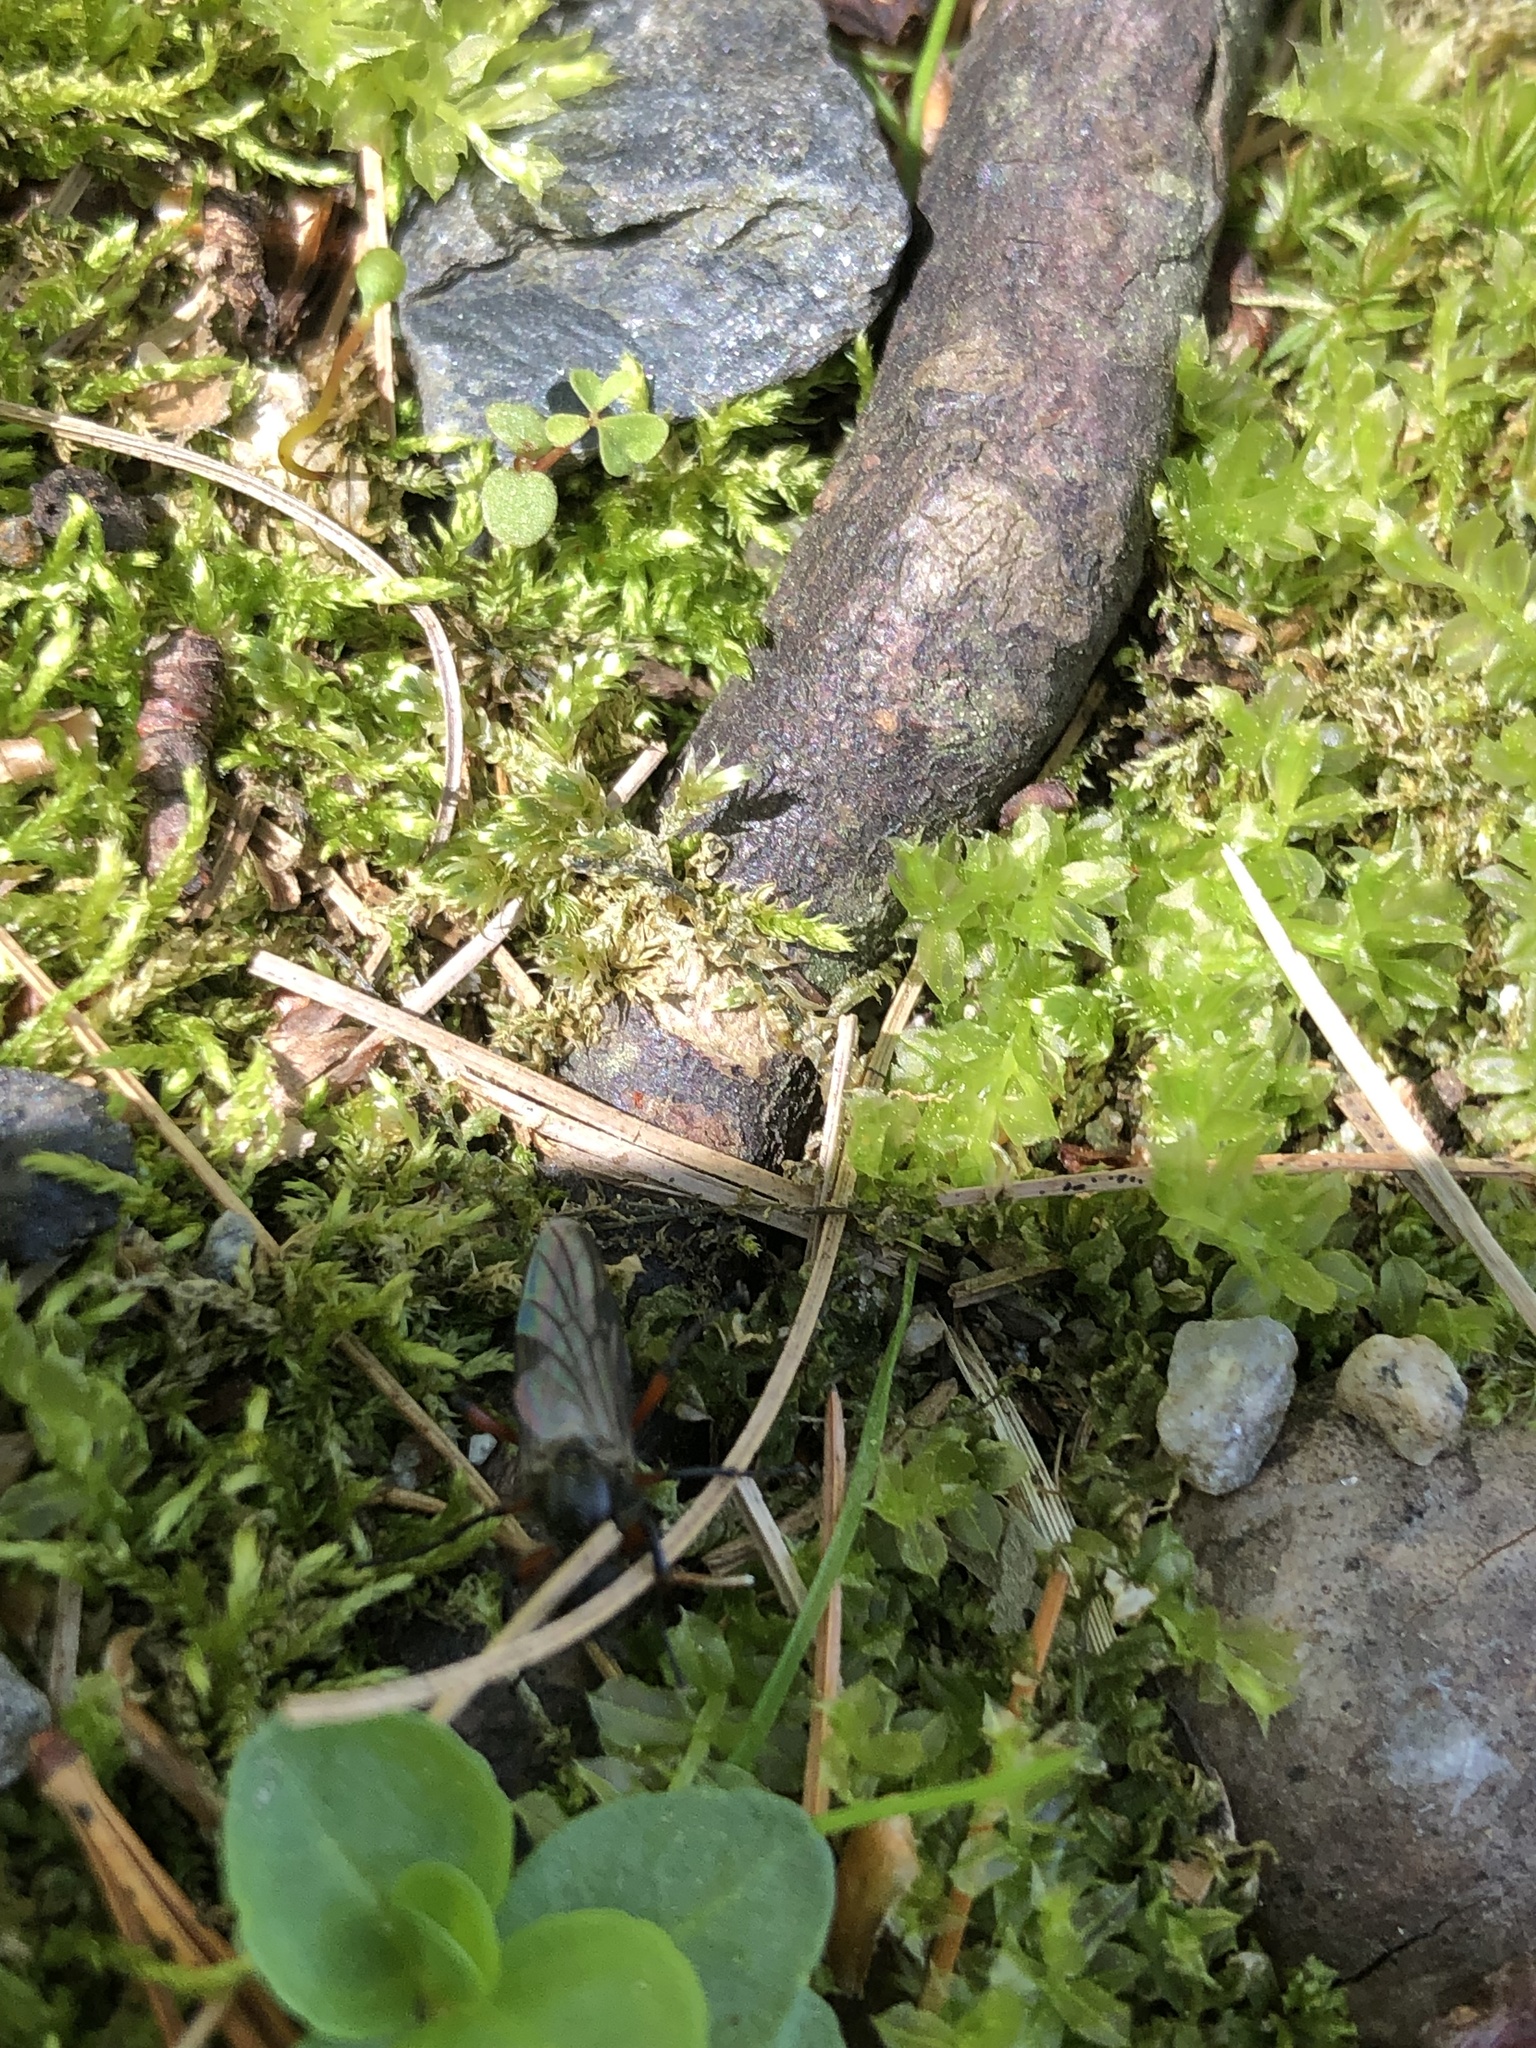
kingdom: Animalia
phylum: Arthropoda
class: Insecta
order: Diptera
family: Bibionidae
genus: Bibio
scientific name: Bibio femoratus
